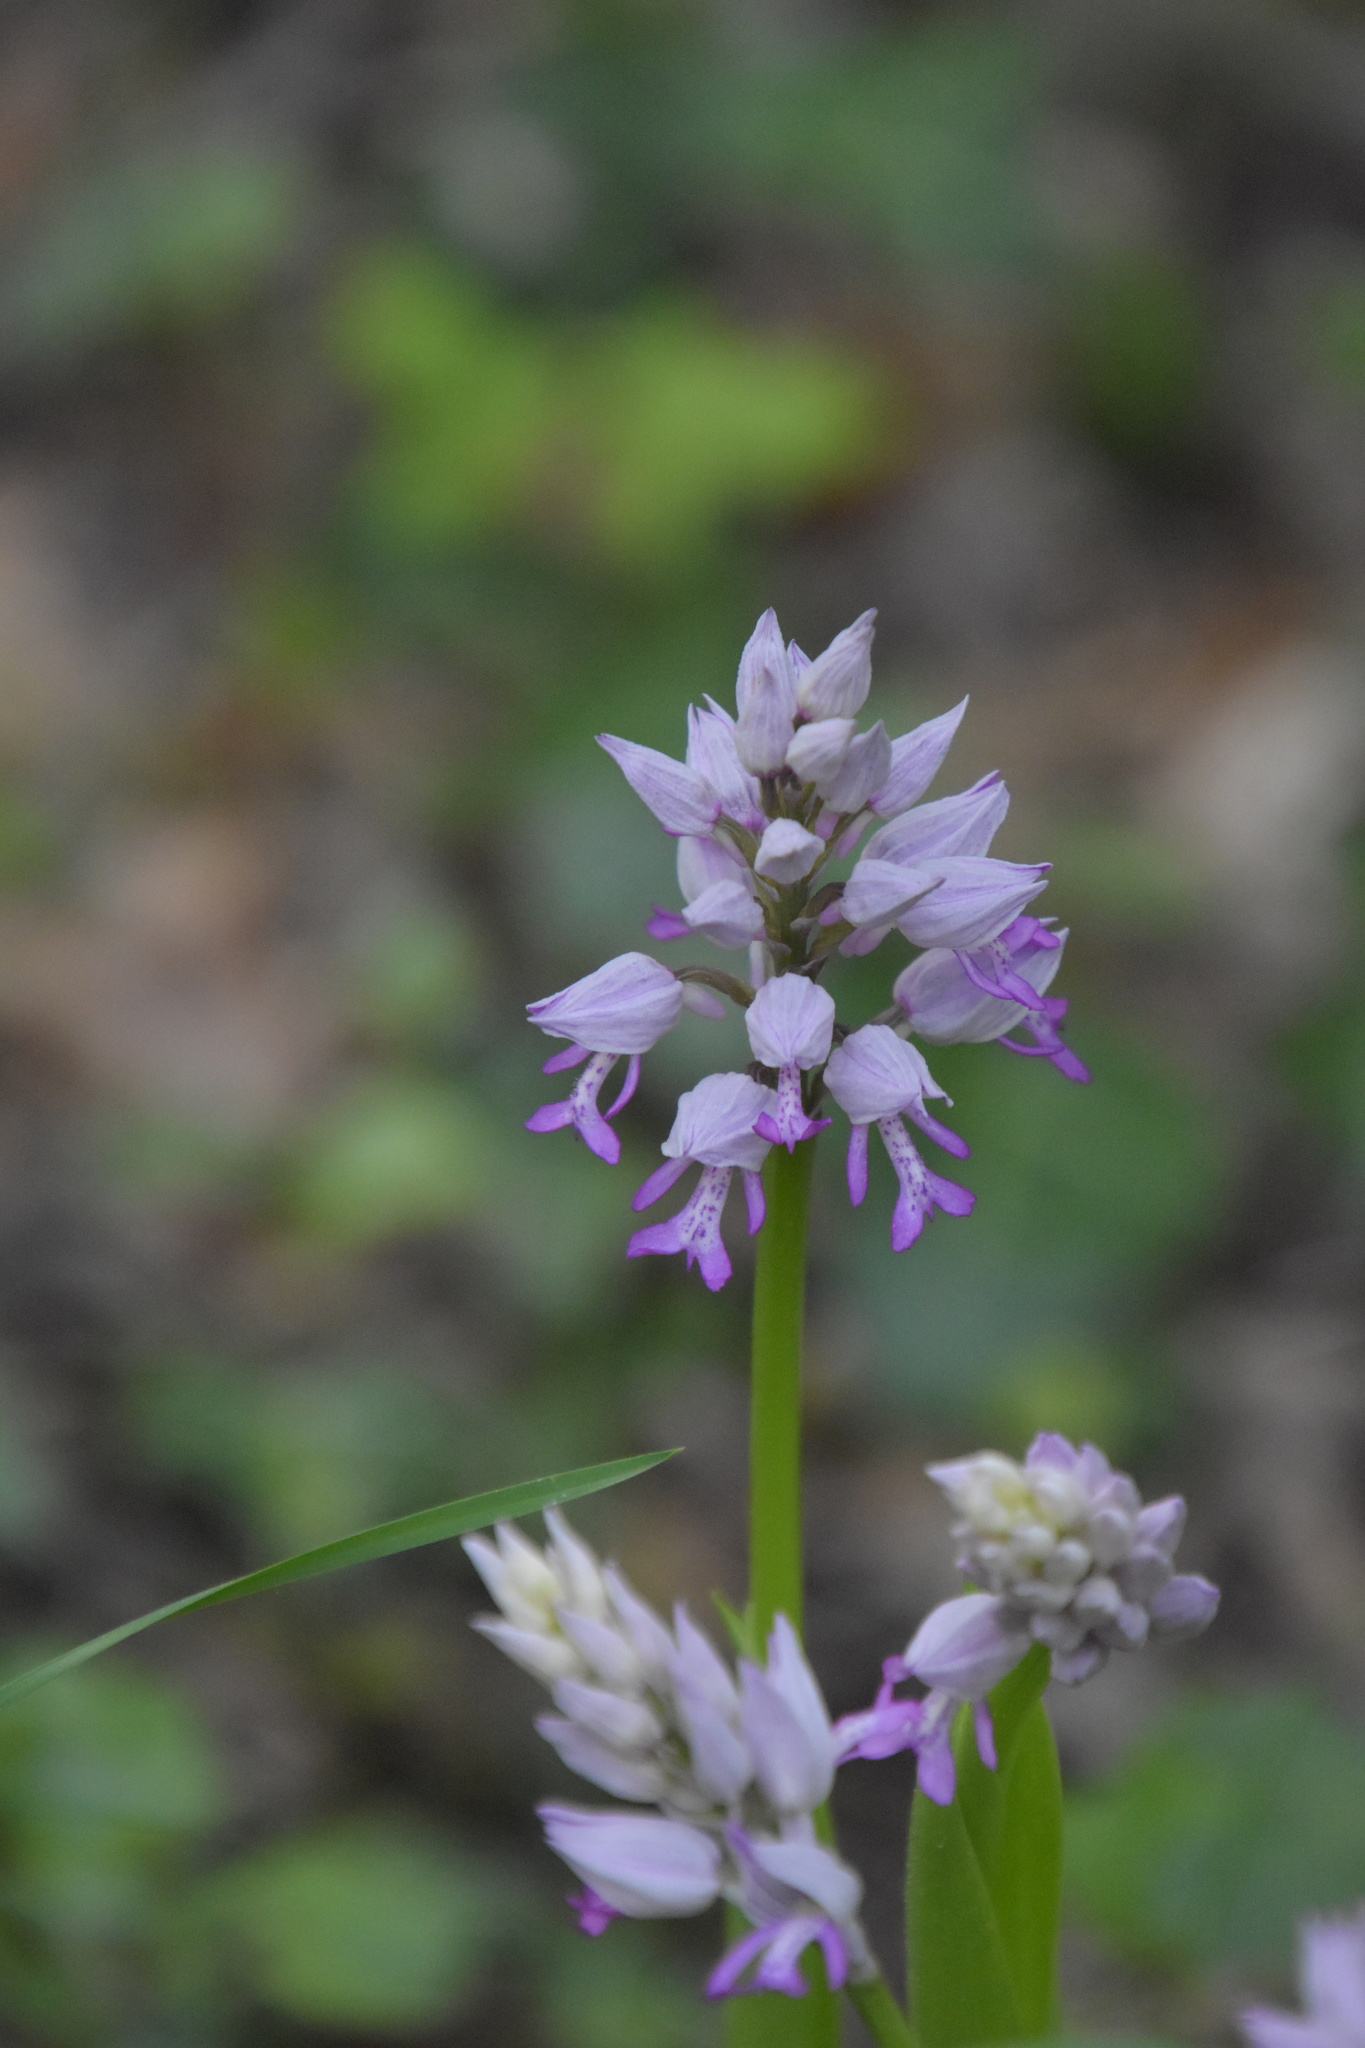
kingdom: Plantae
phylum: Tracheophyta
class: Liliopsida
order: Asparagales
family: Orchidaceae
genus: Orchis
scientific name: Orchis militaris
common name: Military orchid
